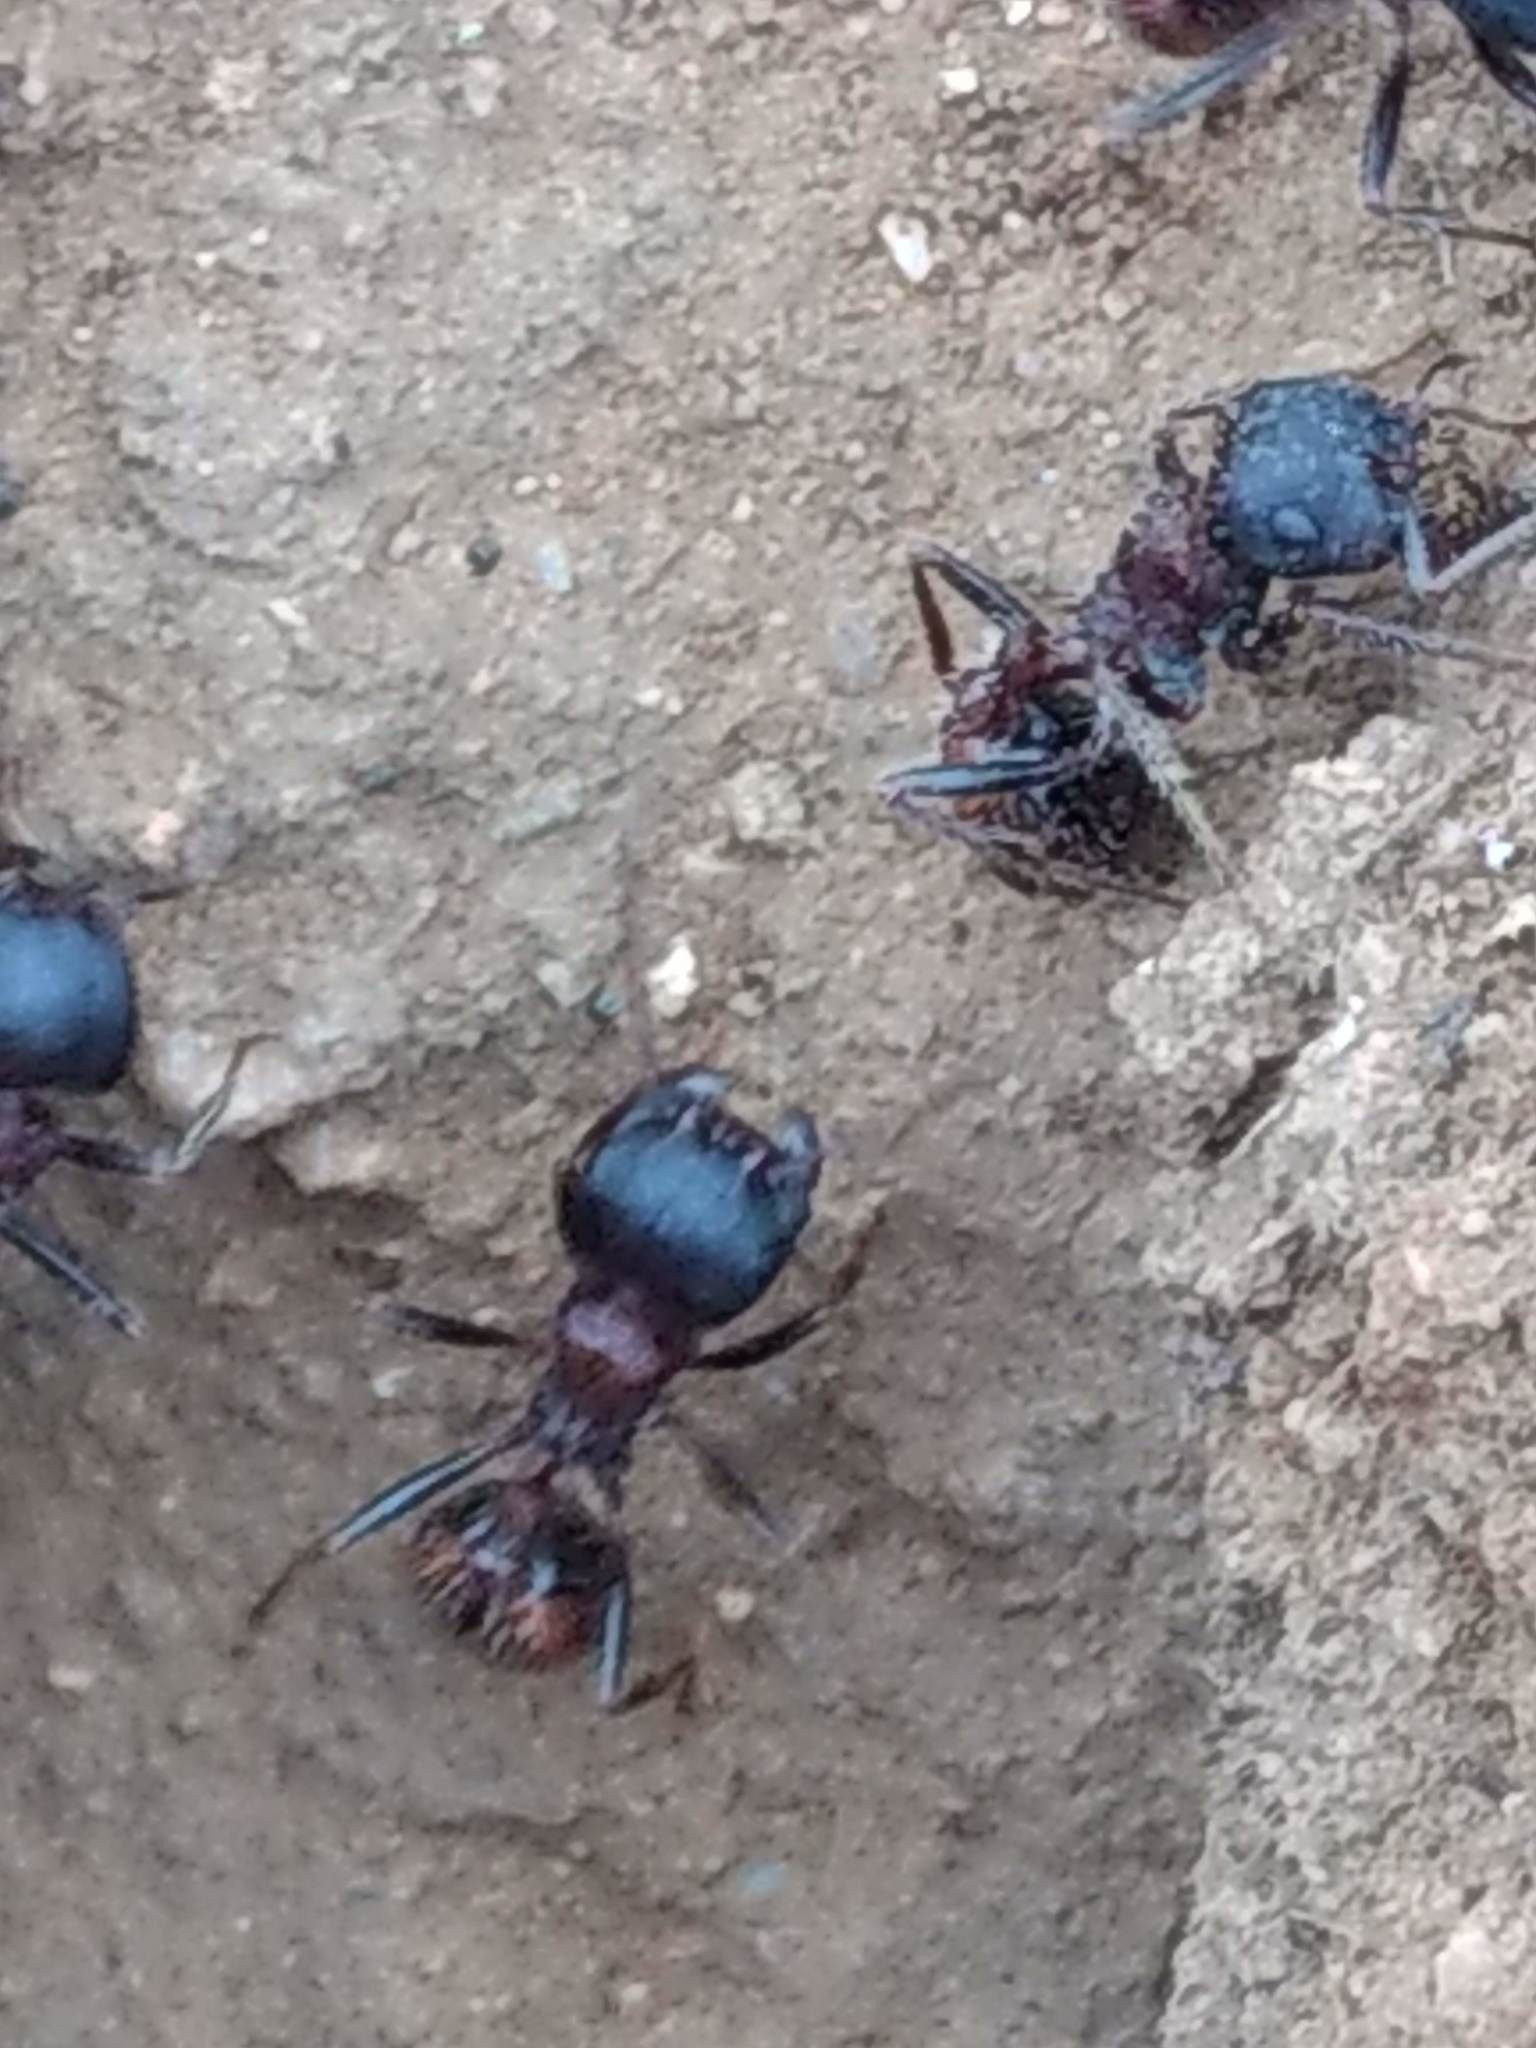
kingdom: Animalia
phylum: Arthropoda
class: Insecta
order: Hymenoptera
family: Formicidae
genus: Pogonomyrmex
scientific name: Pogonomyrmex rugosus
